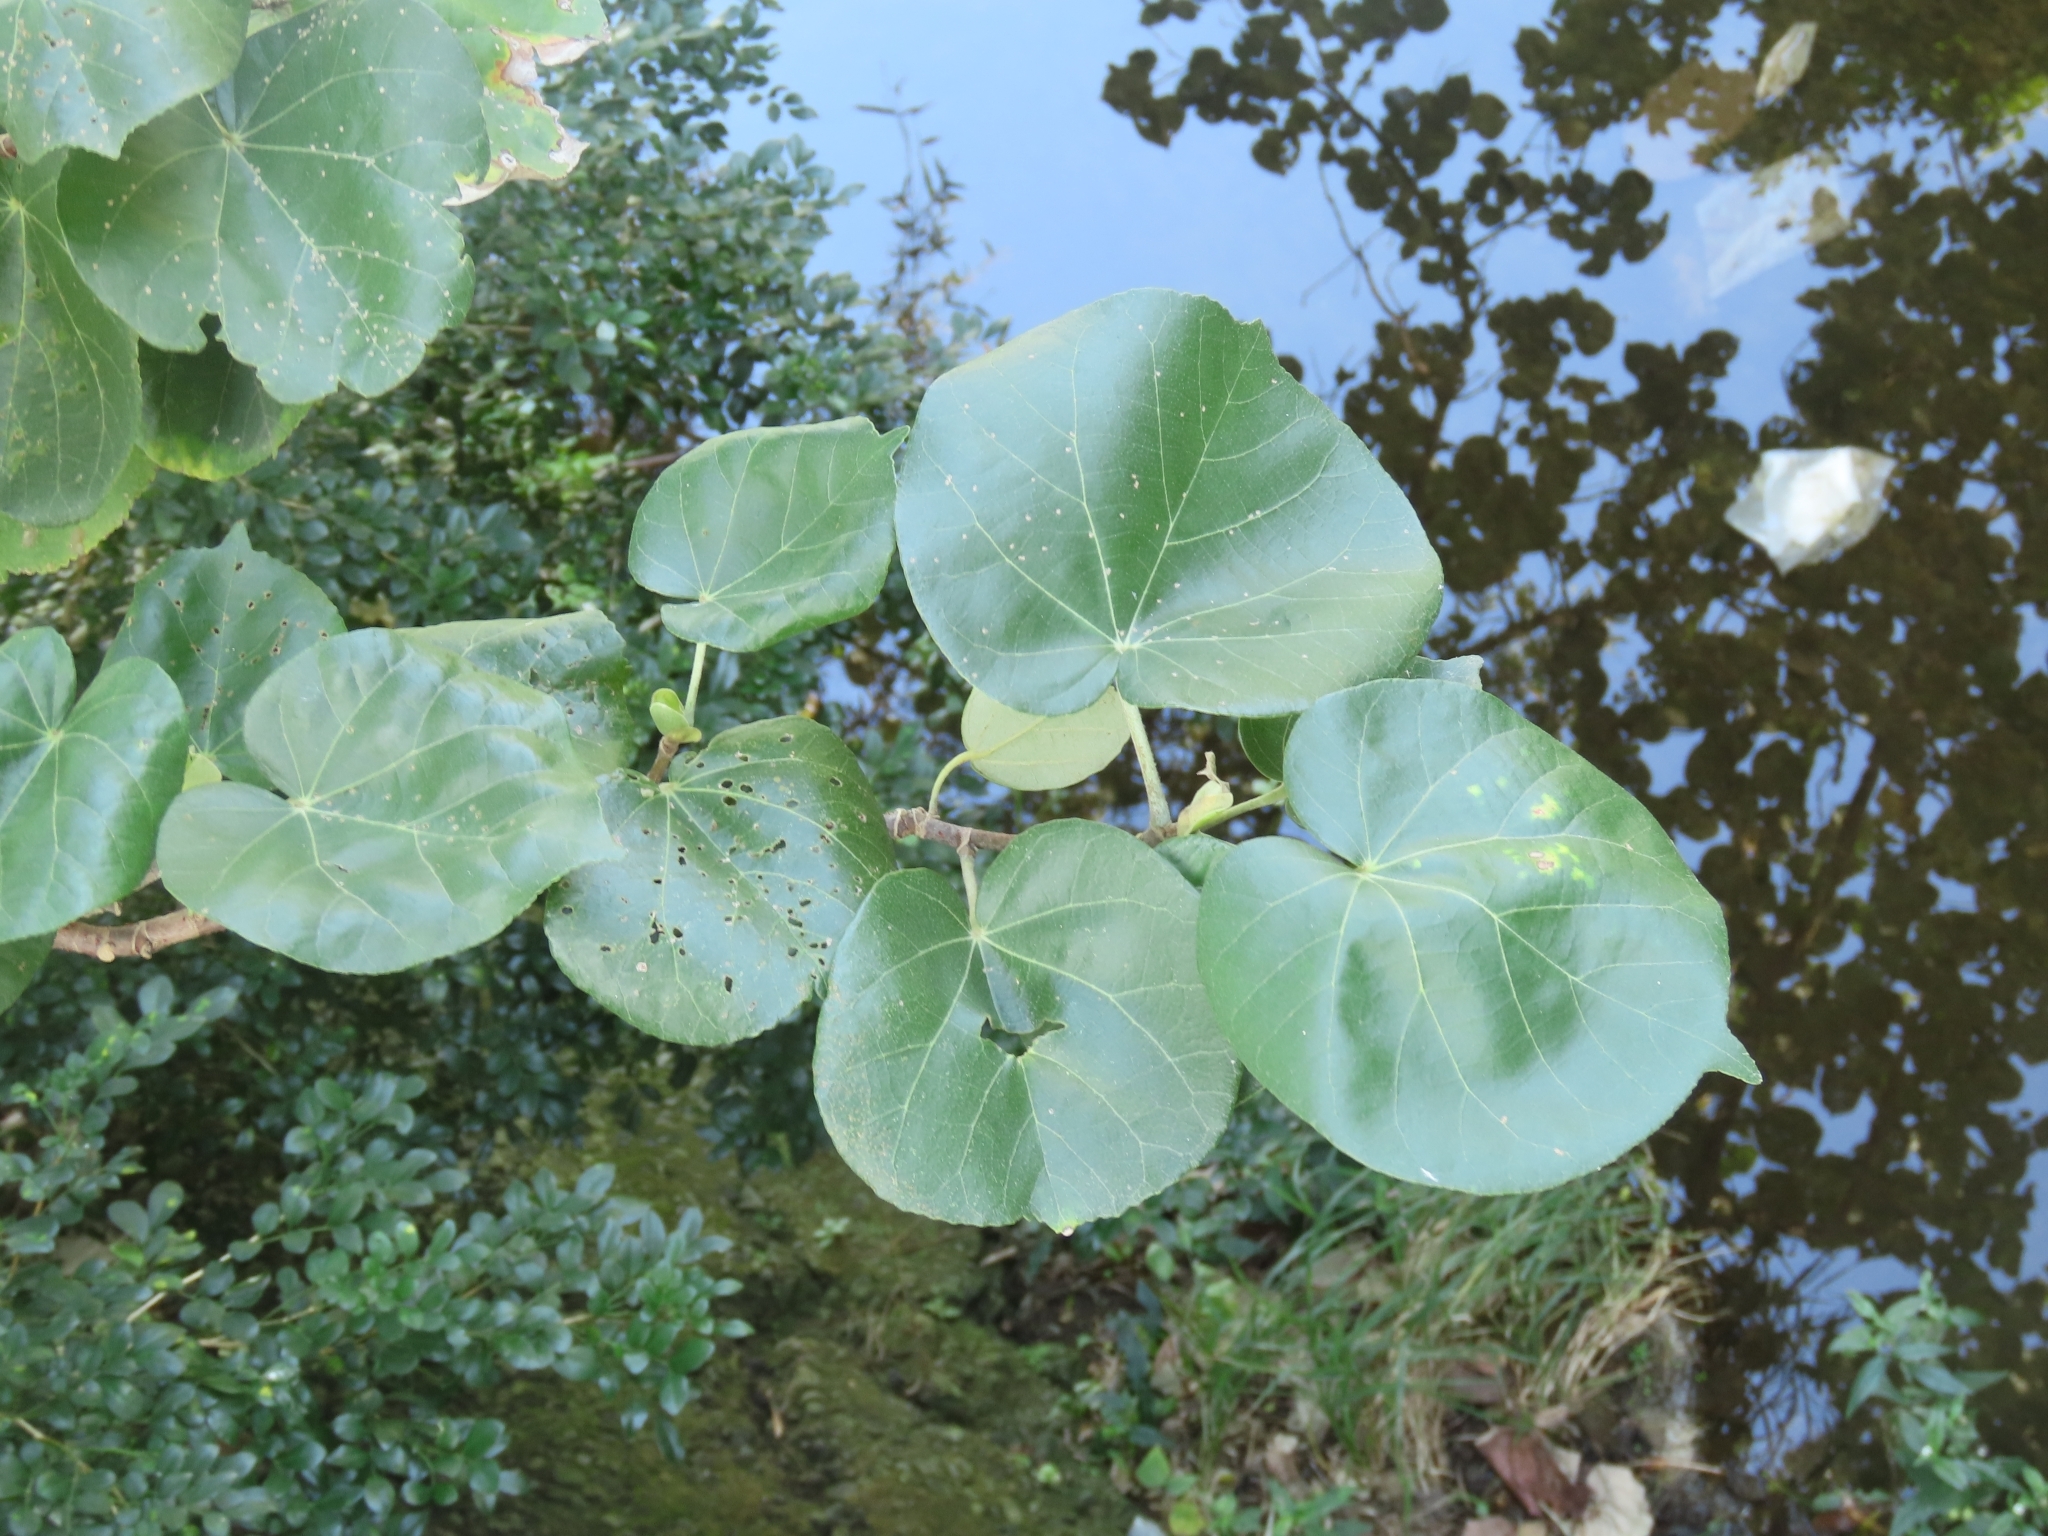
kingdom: Plantae
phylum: Tracheophyta
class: Magnoliopsida
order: Malvales
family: Malvaceae
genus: Talipariti
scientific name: Talipariti tiliaceum
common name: Sea hibiscus
